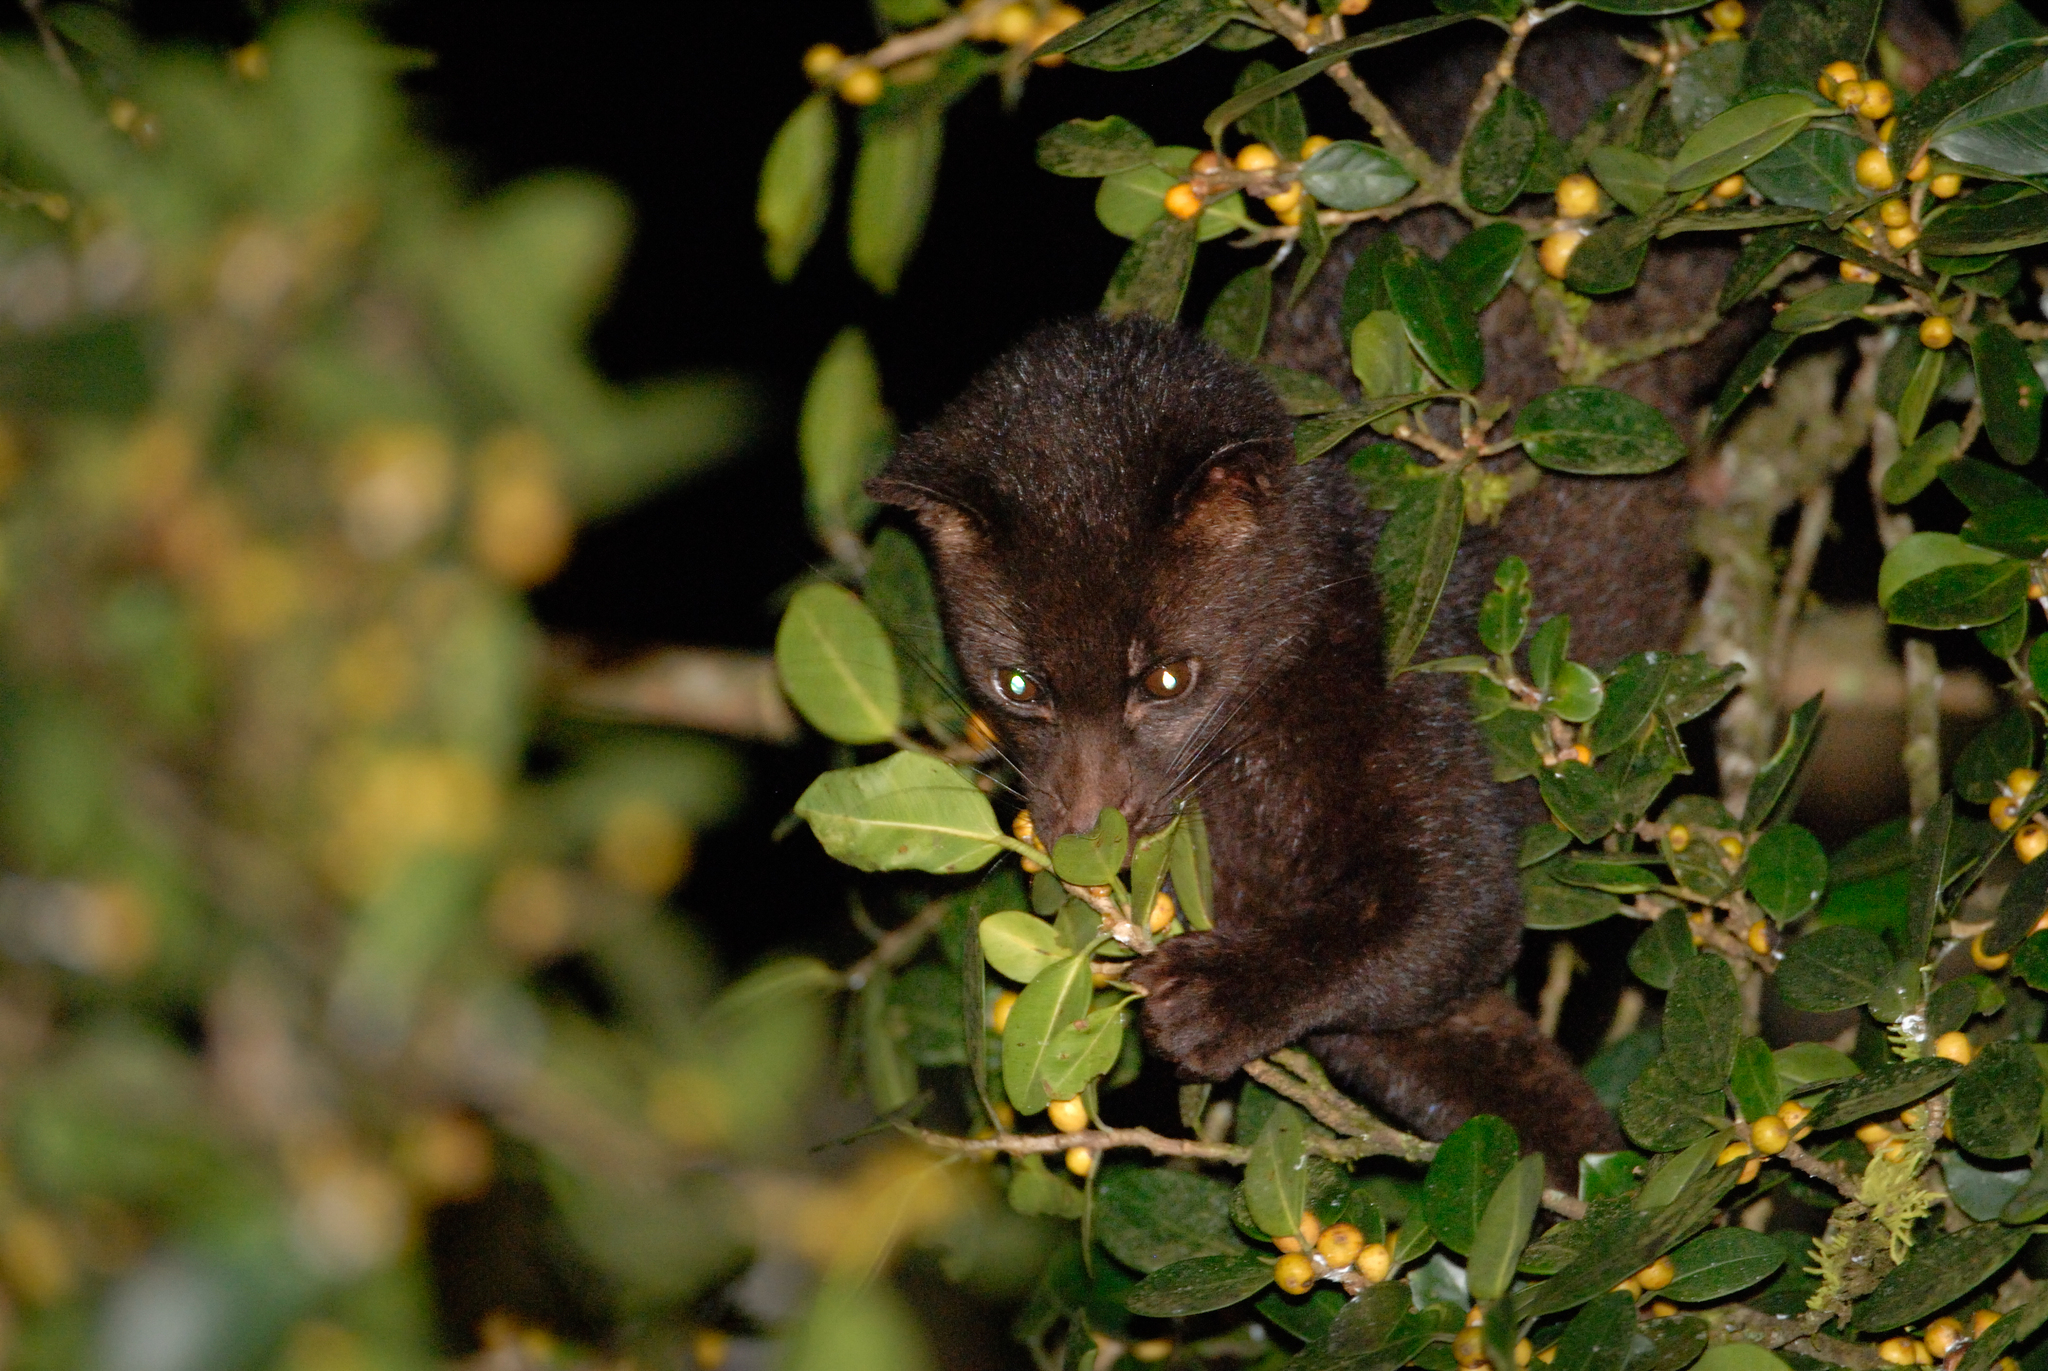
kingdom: Animalia
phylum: Chordata
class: Mammalia
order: Carnivora
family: Viverridae
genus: Paradoxurus
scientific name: Paradoxurus jerdoni
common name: Jerdon's palm civet
